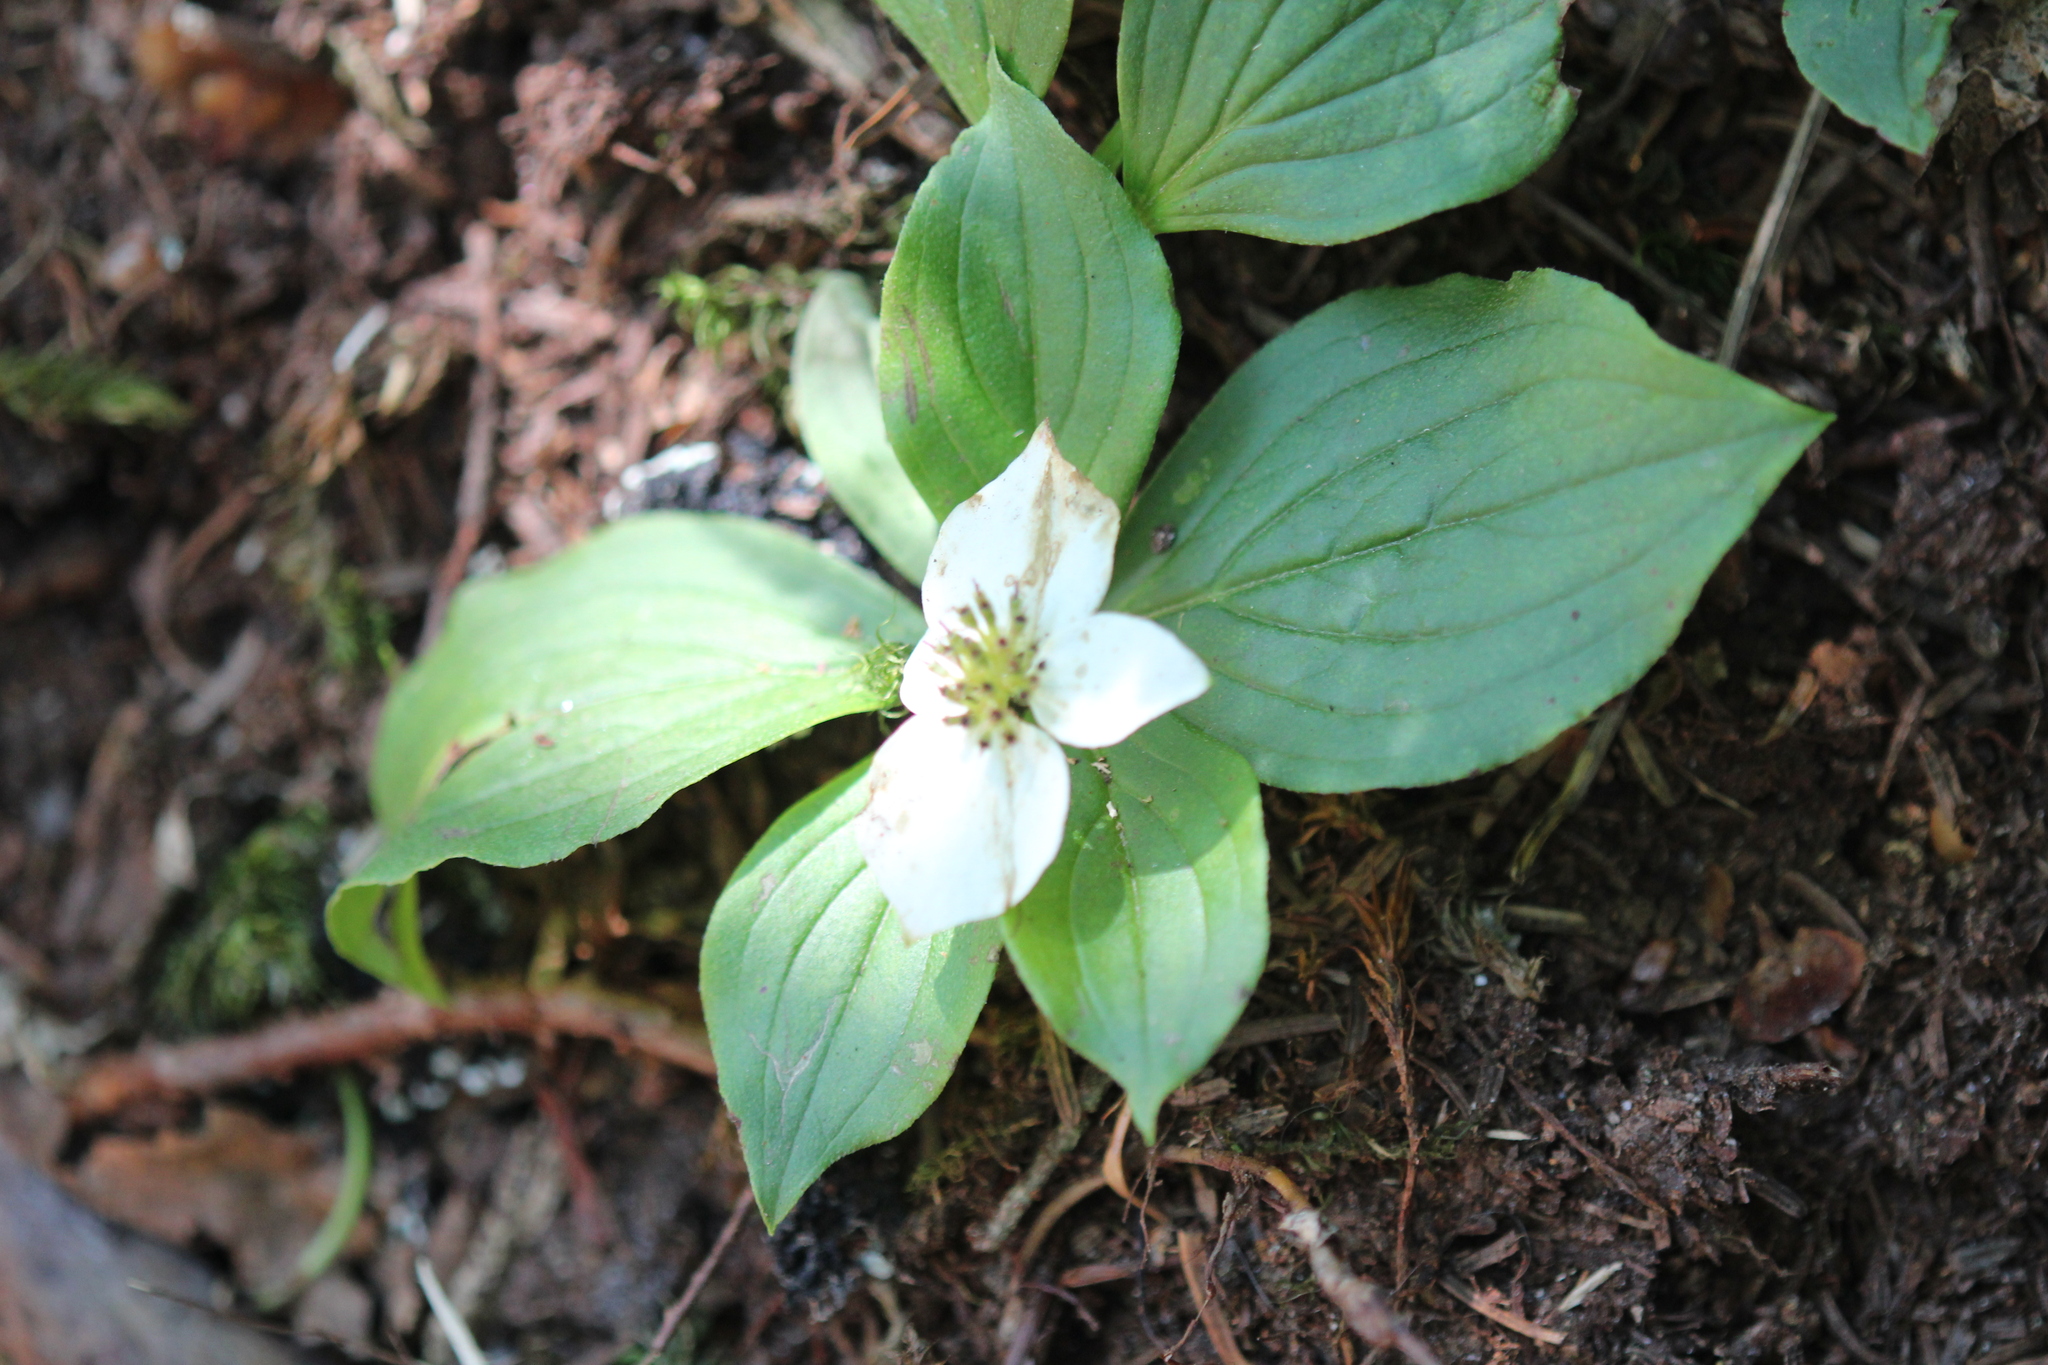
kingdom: Plantae
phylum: Tracheophyta
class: Magnoliopsida
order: Cornales
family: Cornaceae
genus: Cornus
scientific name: Cornus canadensis
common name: Creeping dogwood
